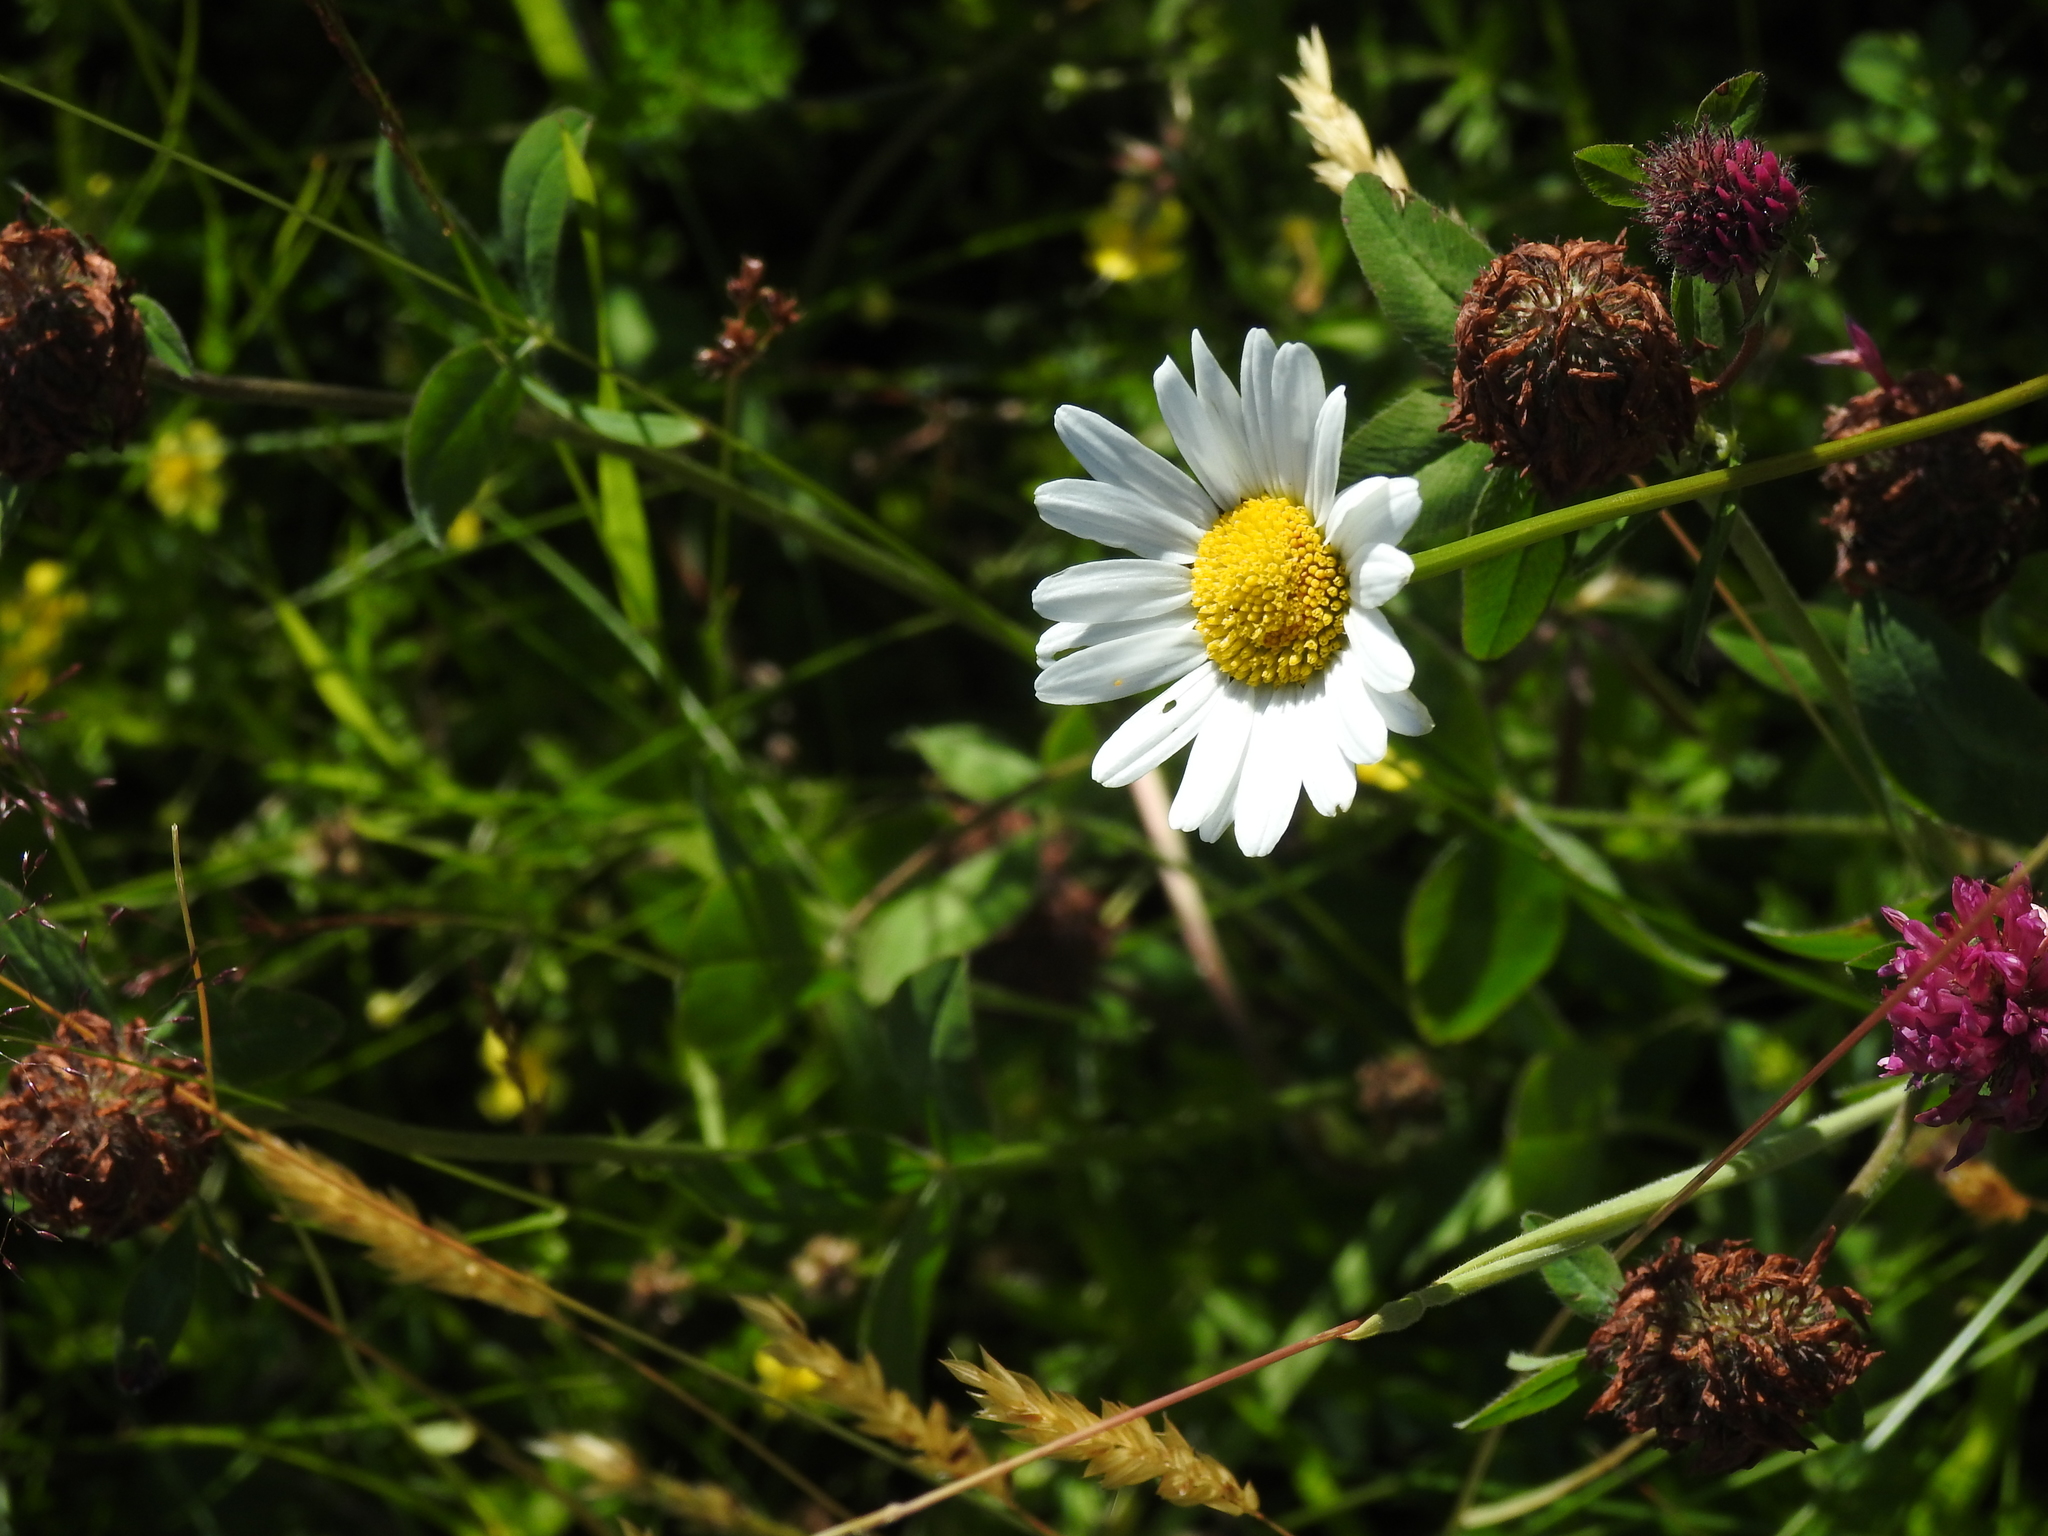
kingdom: Plantae
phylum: Tracheophyta
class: Magnoliopsida
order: Asterales
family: Asteraceae
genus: Leucanthemum
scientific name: Leucanthemum vulgare
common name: Oxeye daisy
